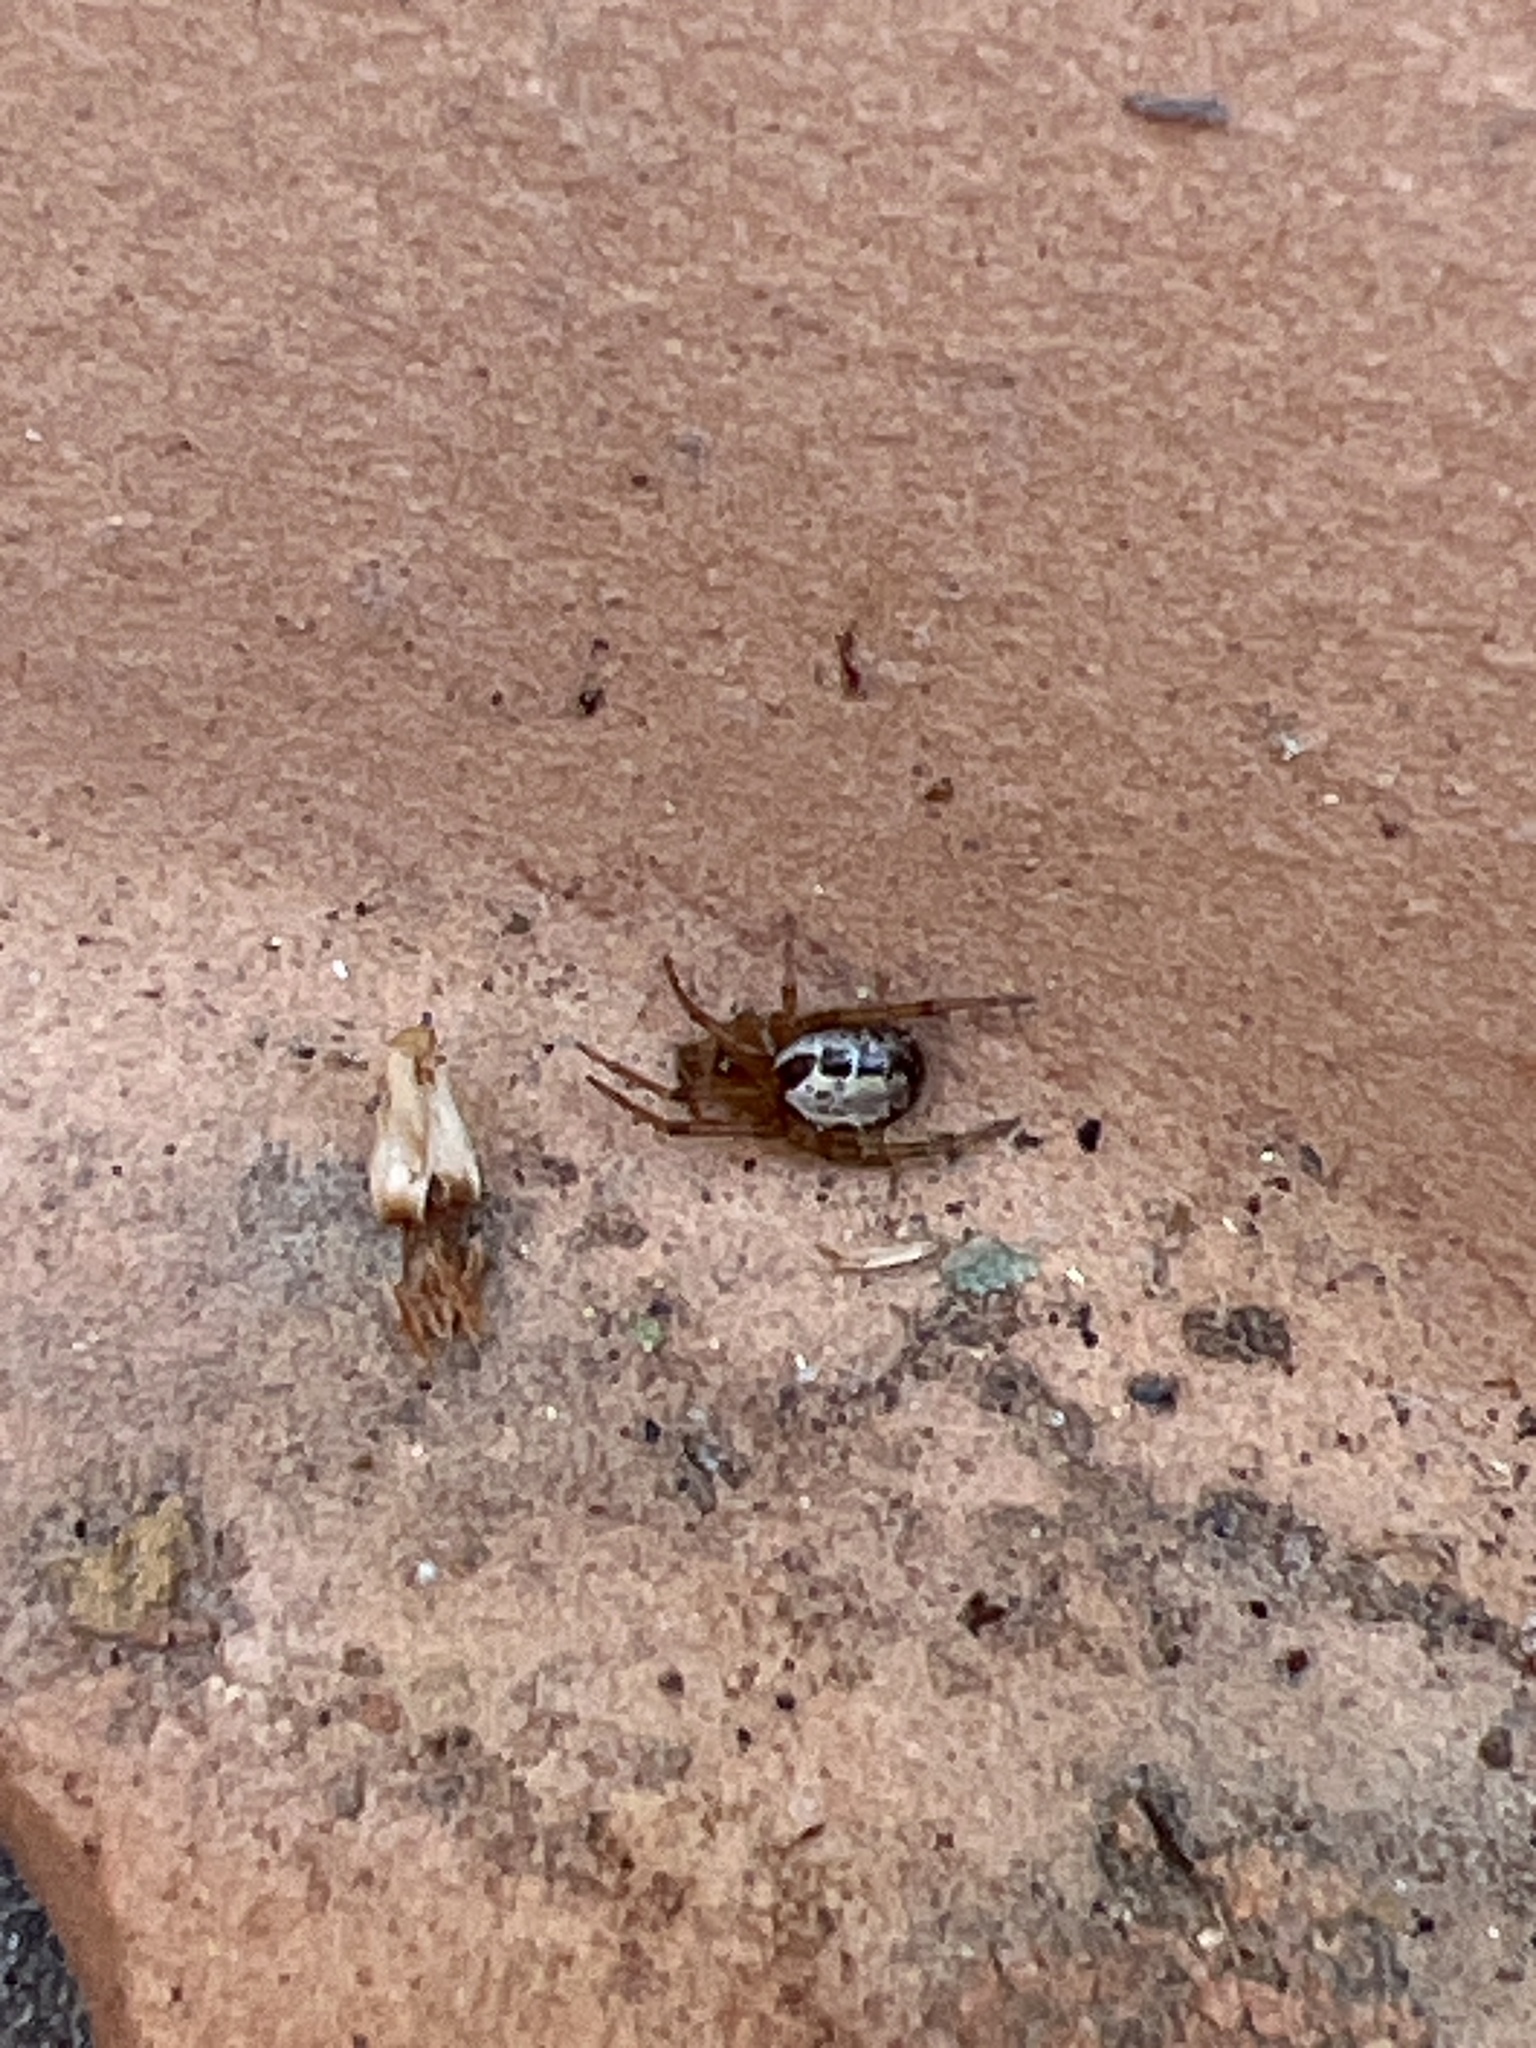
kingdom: Animalia
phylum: Arthropoda
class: Arachnida
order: Araneae
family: Theridiidae
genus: Steatoda
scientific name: Steatoda nobilis
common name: Cobweb weaver
